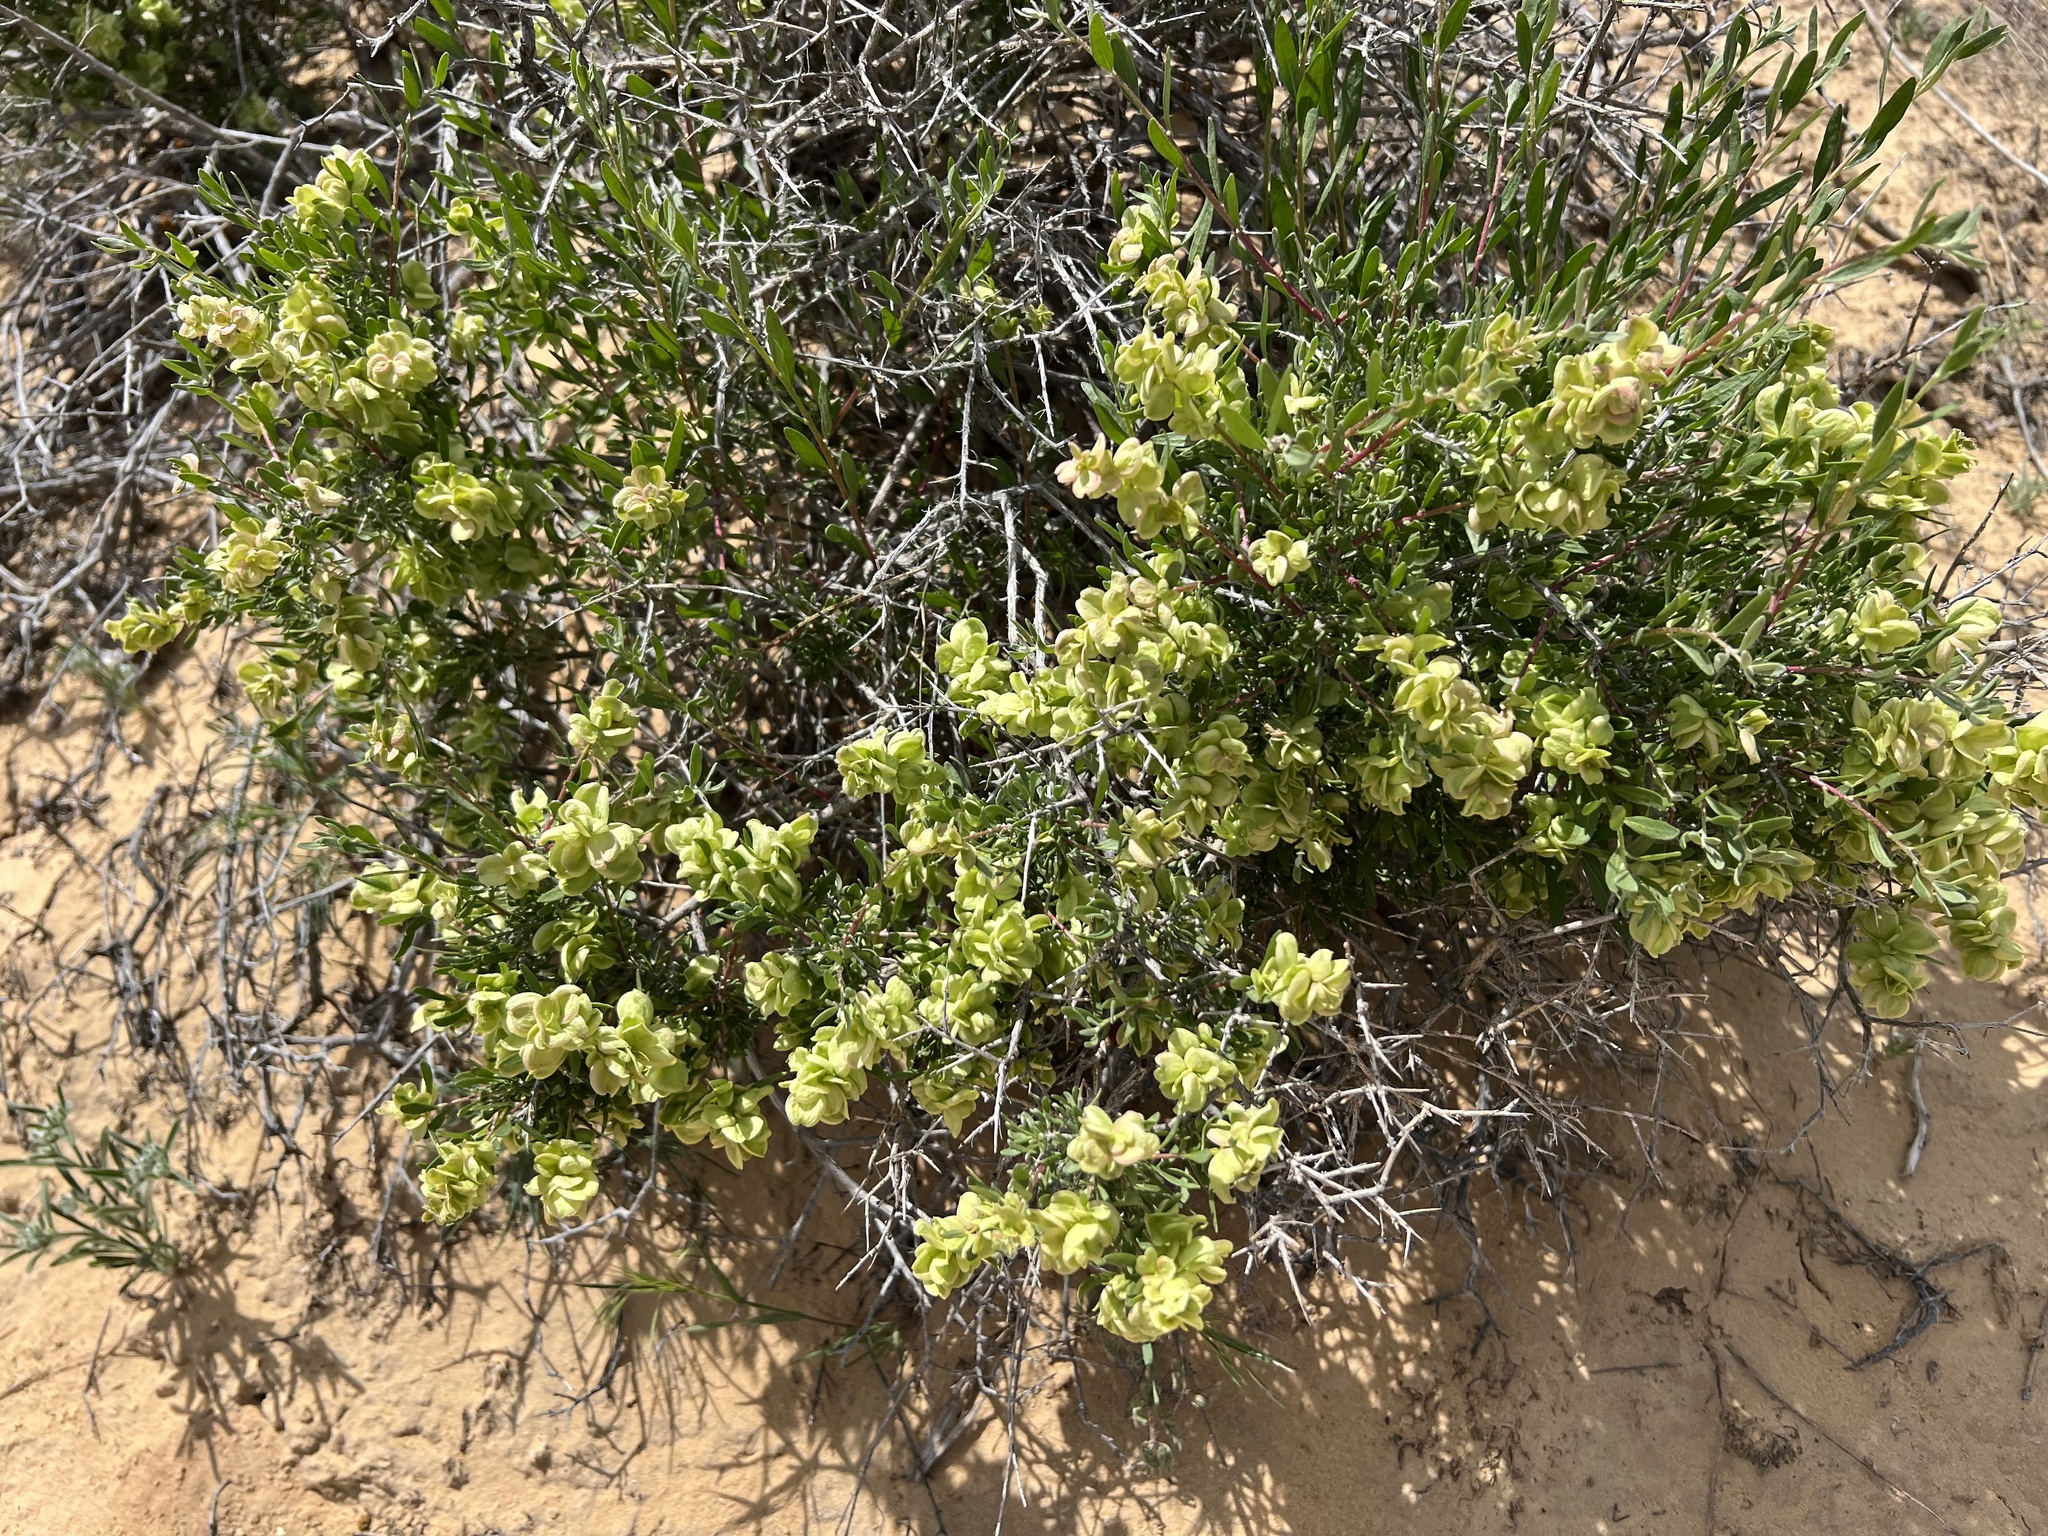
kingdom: Plantae
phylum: Tracheophyta
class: Magnoliopsida
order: Caryophyllales
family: Amaranthaceae
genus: Grayia
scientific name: Grayia spinosa
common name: Spiny hopsage
